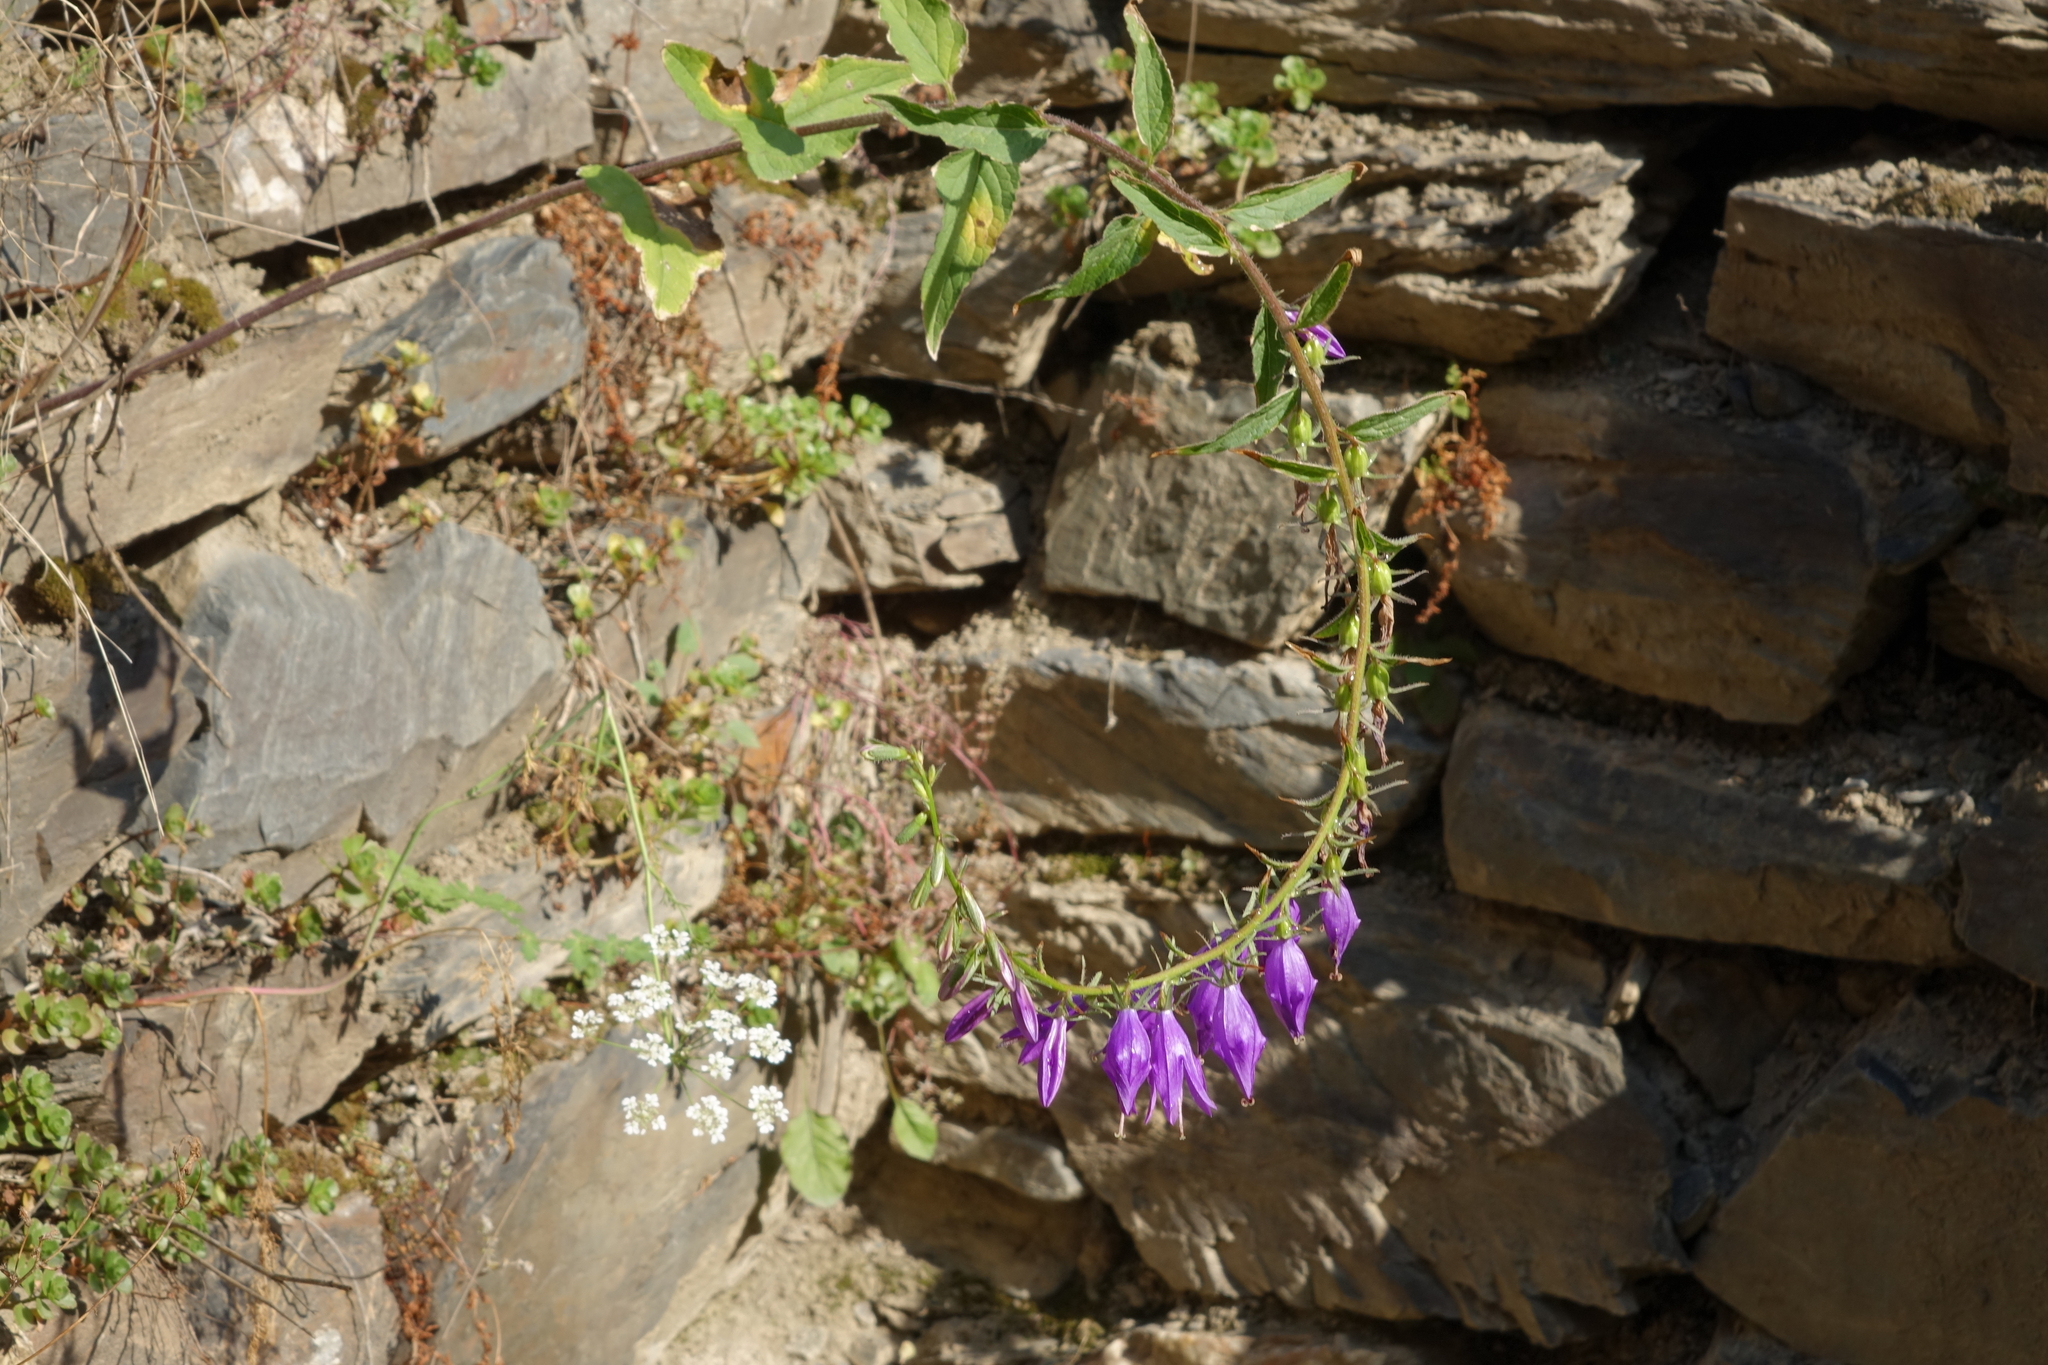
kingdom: Plantae
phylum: Tracheophyta
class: Magnoliopsida
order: Asterales
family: Campanulaceae
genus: Campanula
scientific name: Campanula rapunculoides
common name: Creeping bellflower
